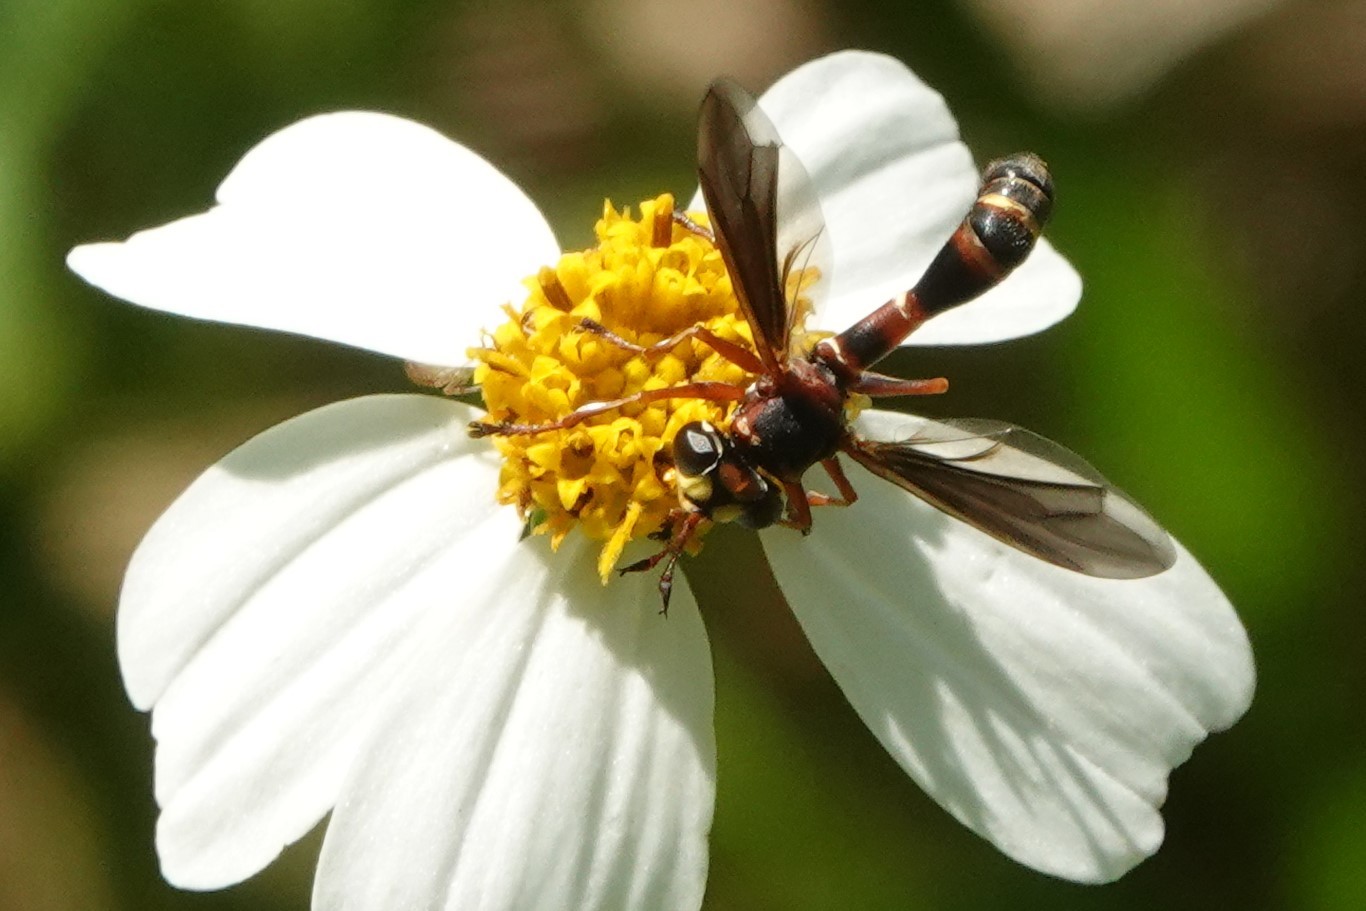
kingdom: Animalia
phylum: Arthropoda
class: Insecta
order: Diptera
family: Conopidae
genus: Physocephala
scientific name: Physocephala sagittaria
